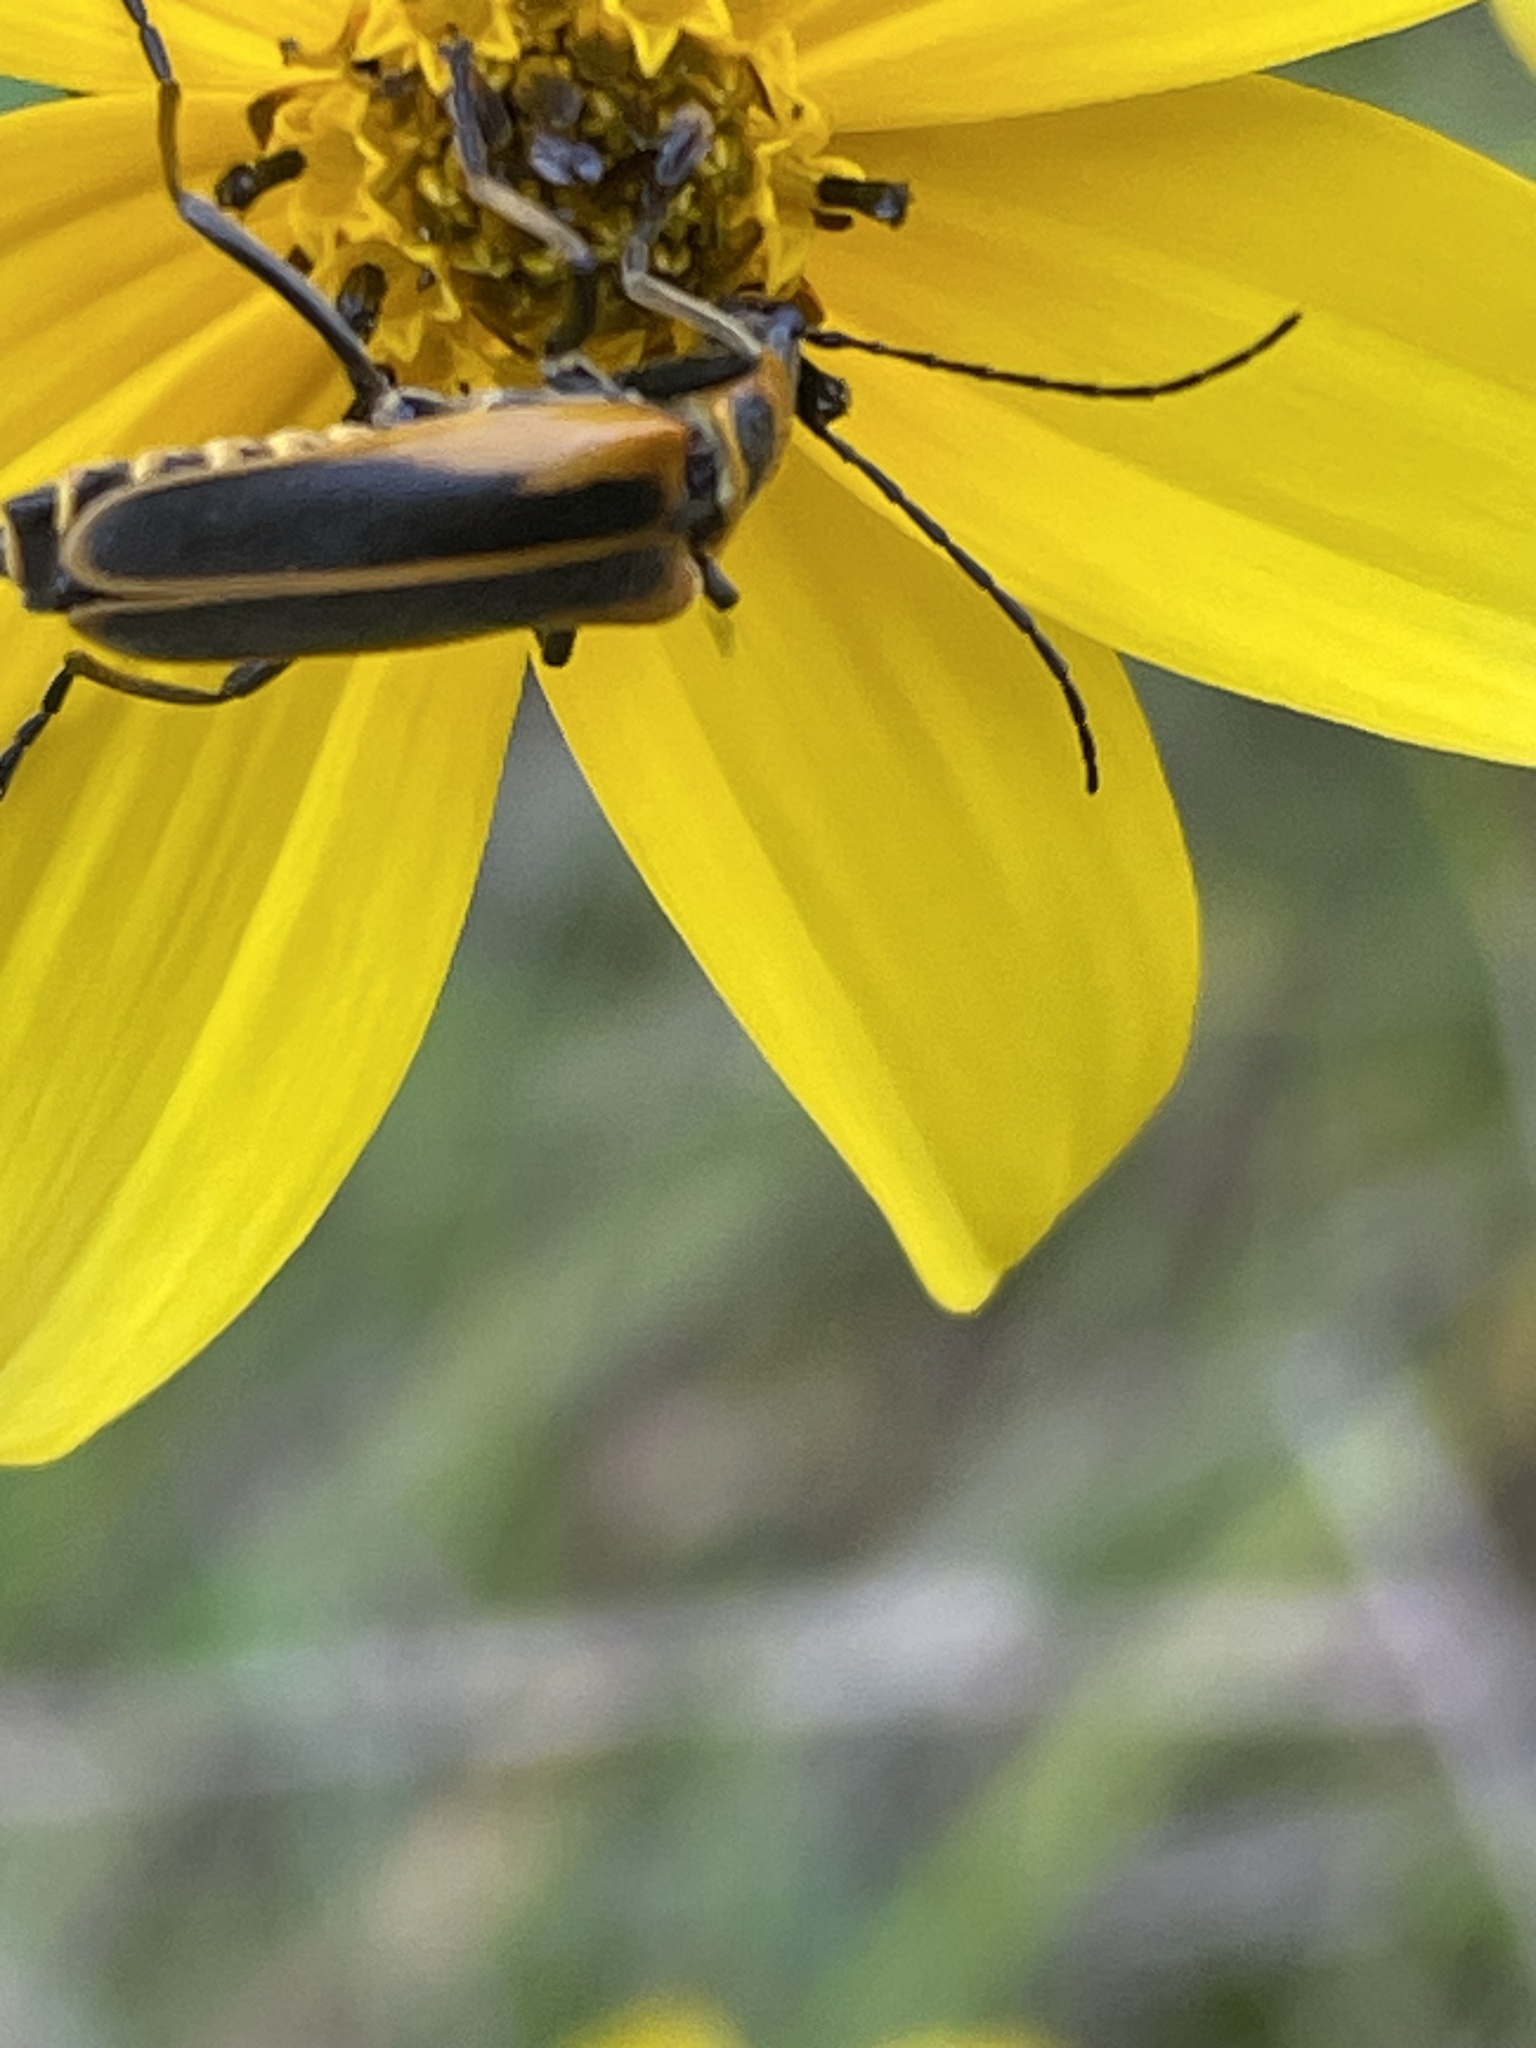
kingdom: Animalia
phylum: Arthropoda
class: Insecta
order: Coleoptera
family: Cantharidae
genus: Chauliognathus
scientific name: Chauliognathus pensylvanicus
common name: Goldenrod soldier beetle
